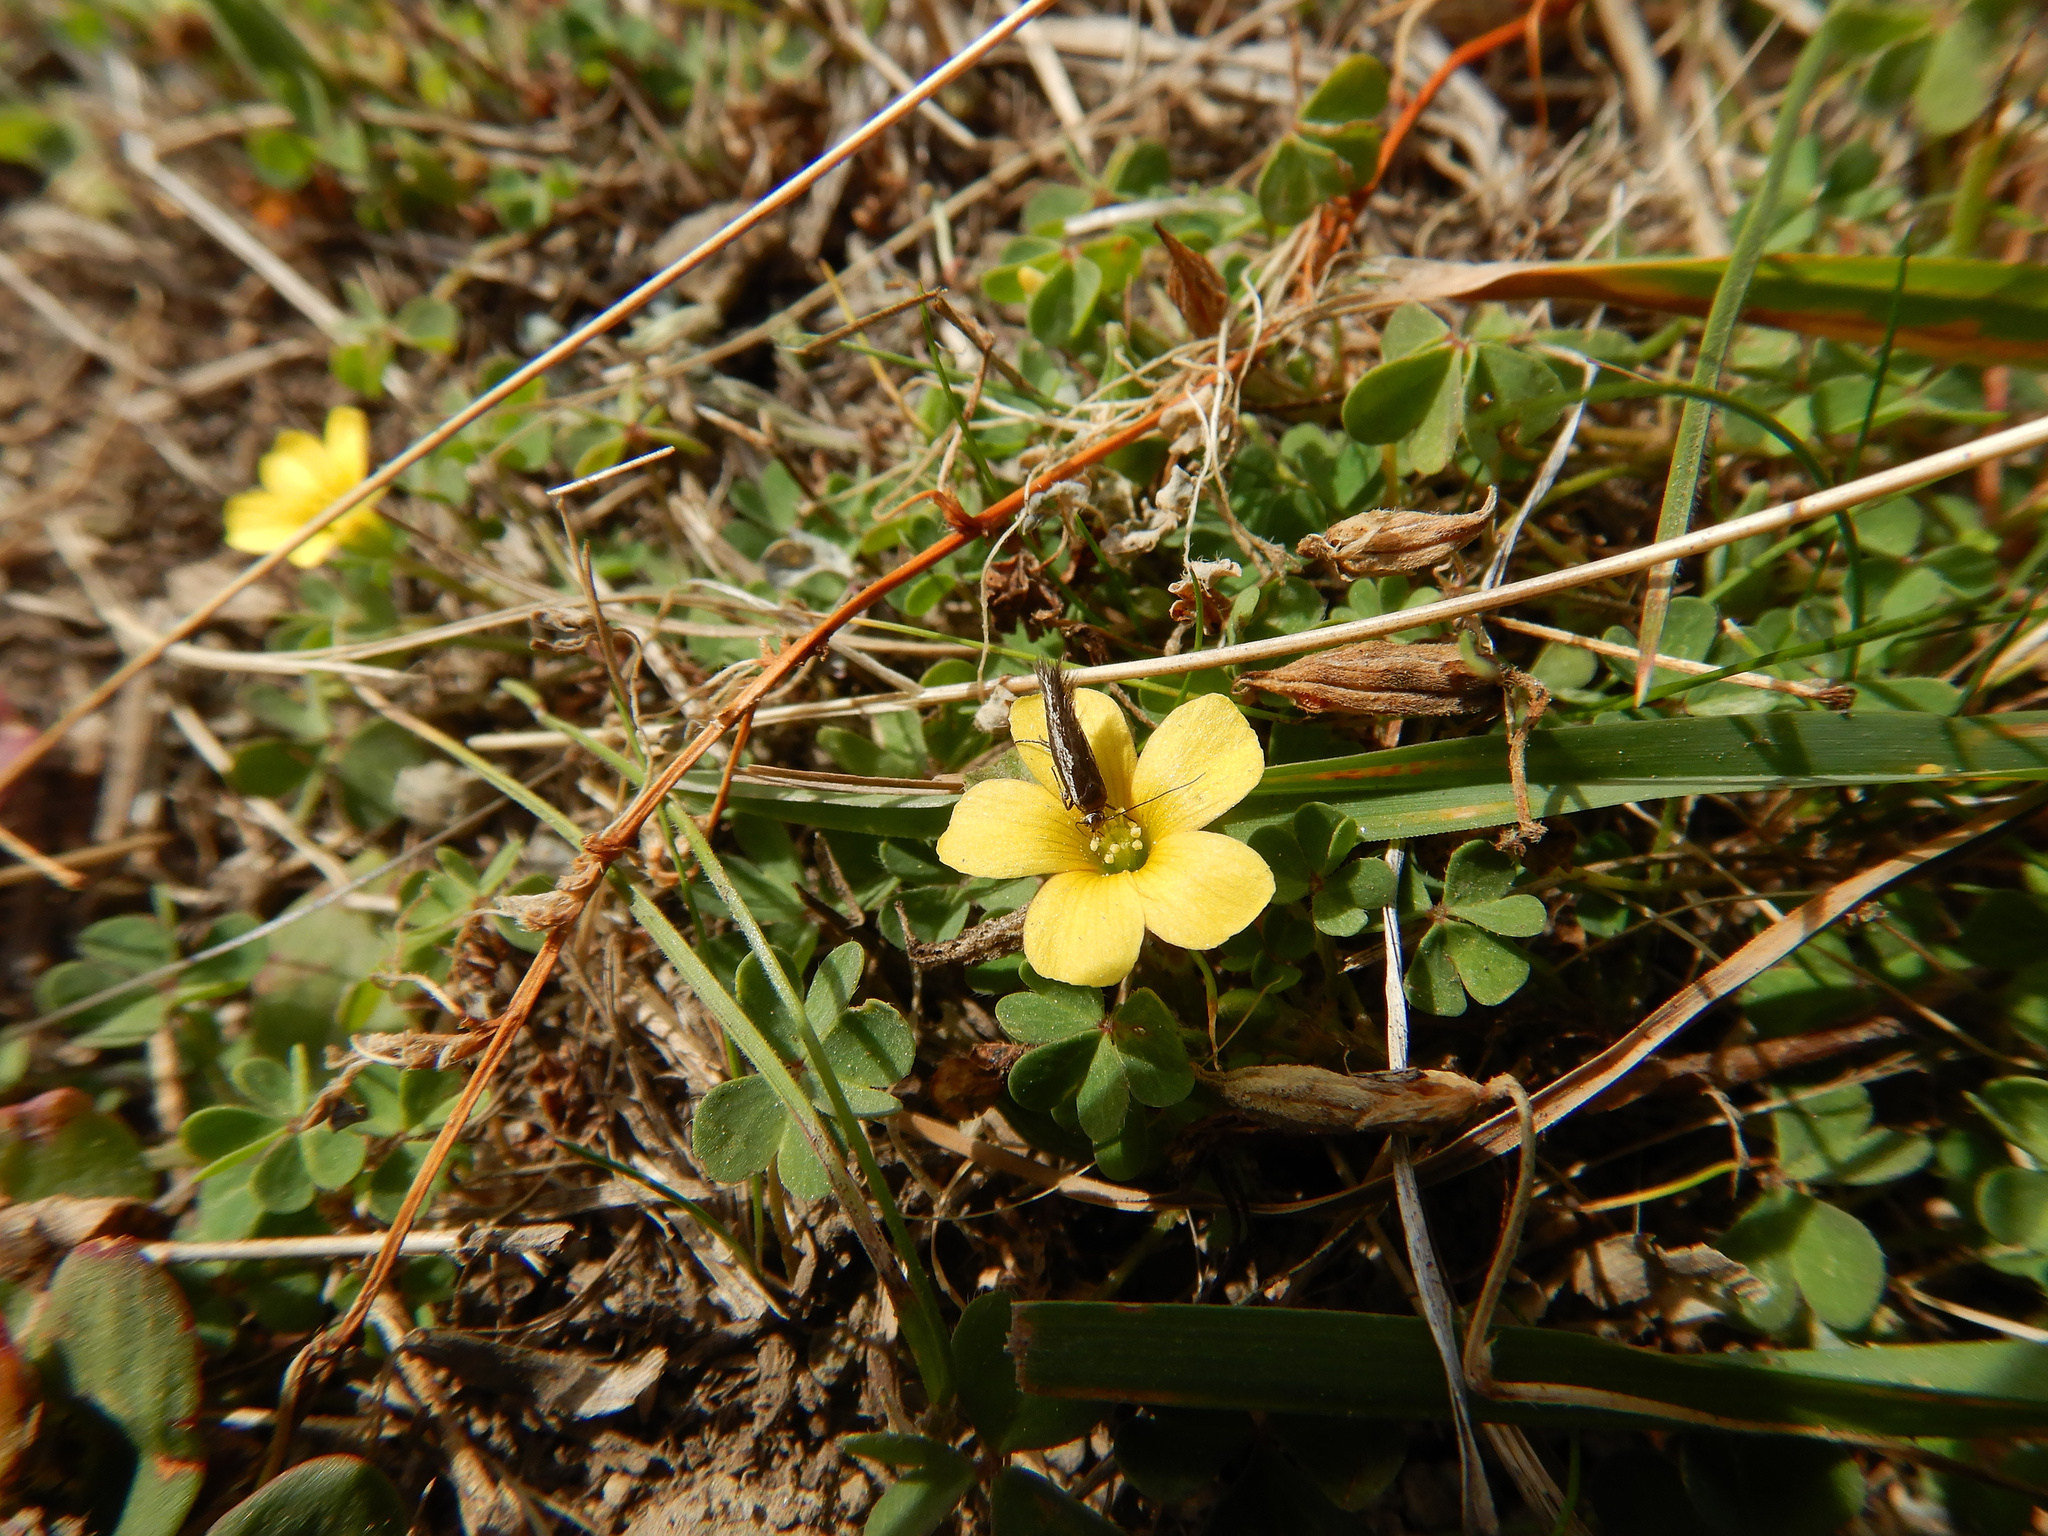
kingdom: Plantae
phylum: Tracheophyta
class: Magnoliopsida
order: Oxalidales
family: Oxalidaceae
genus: Oxalis
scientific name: Oxalis exilis
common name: Least yellow-sorrel
